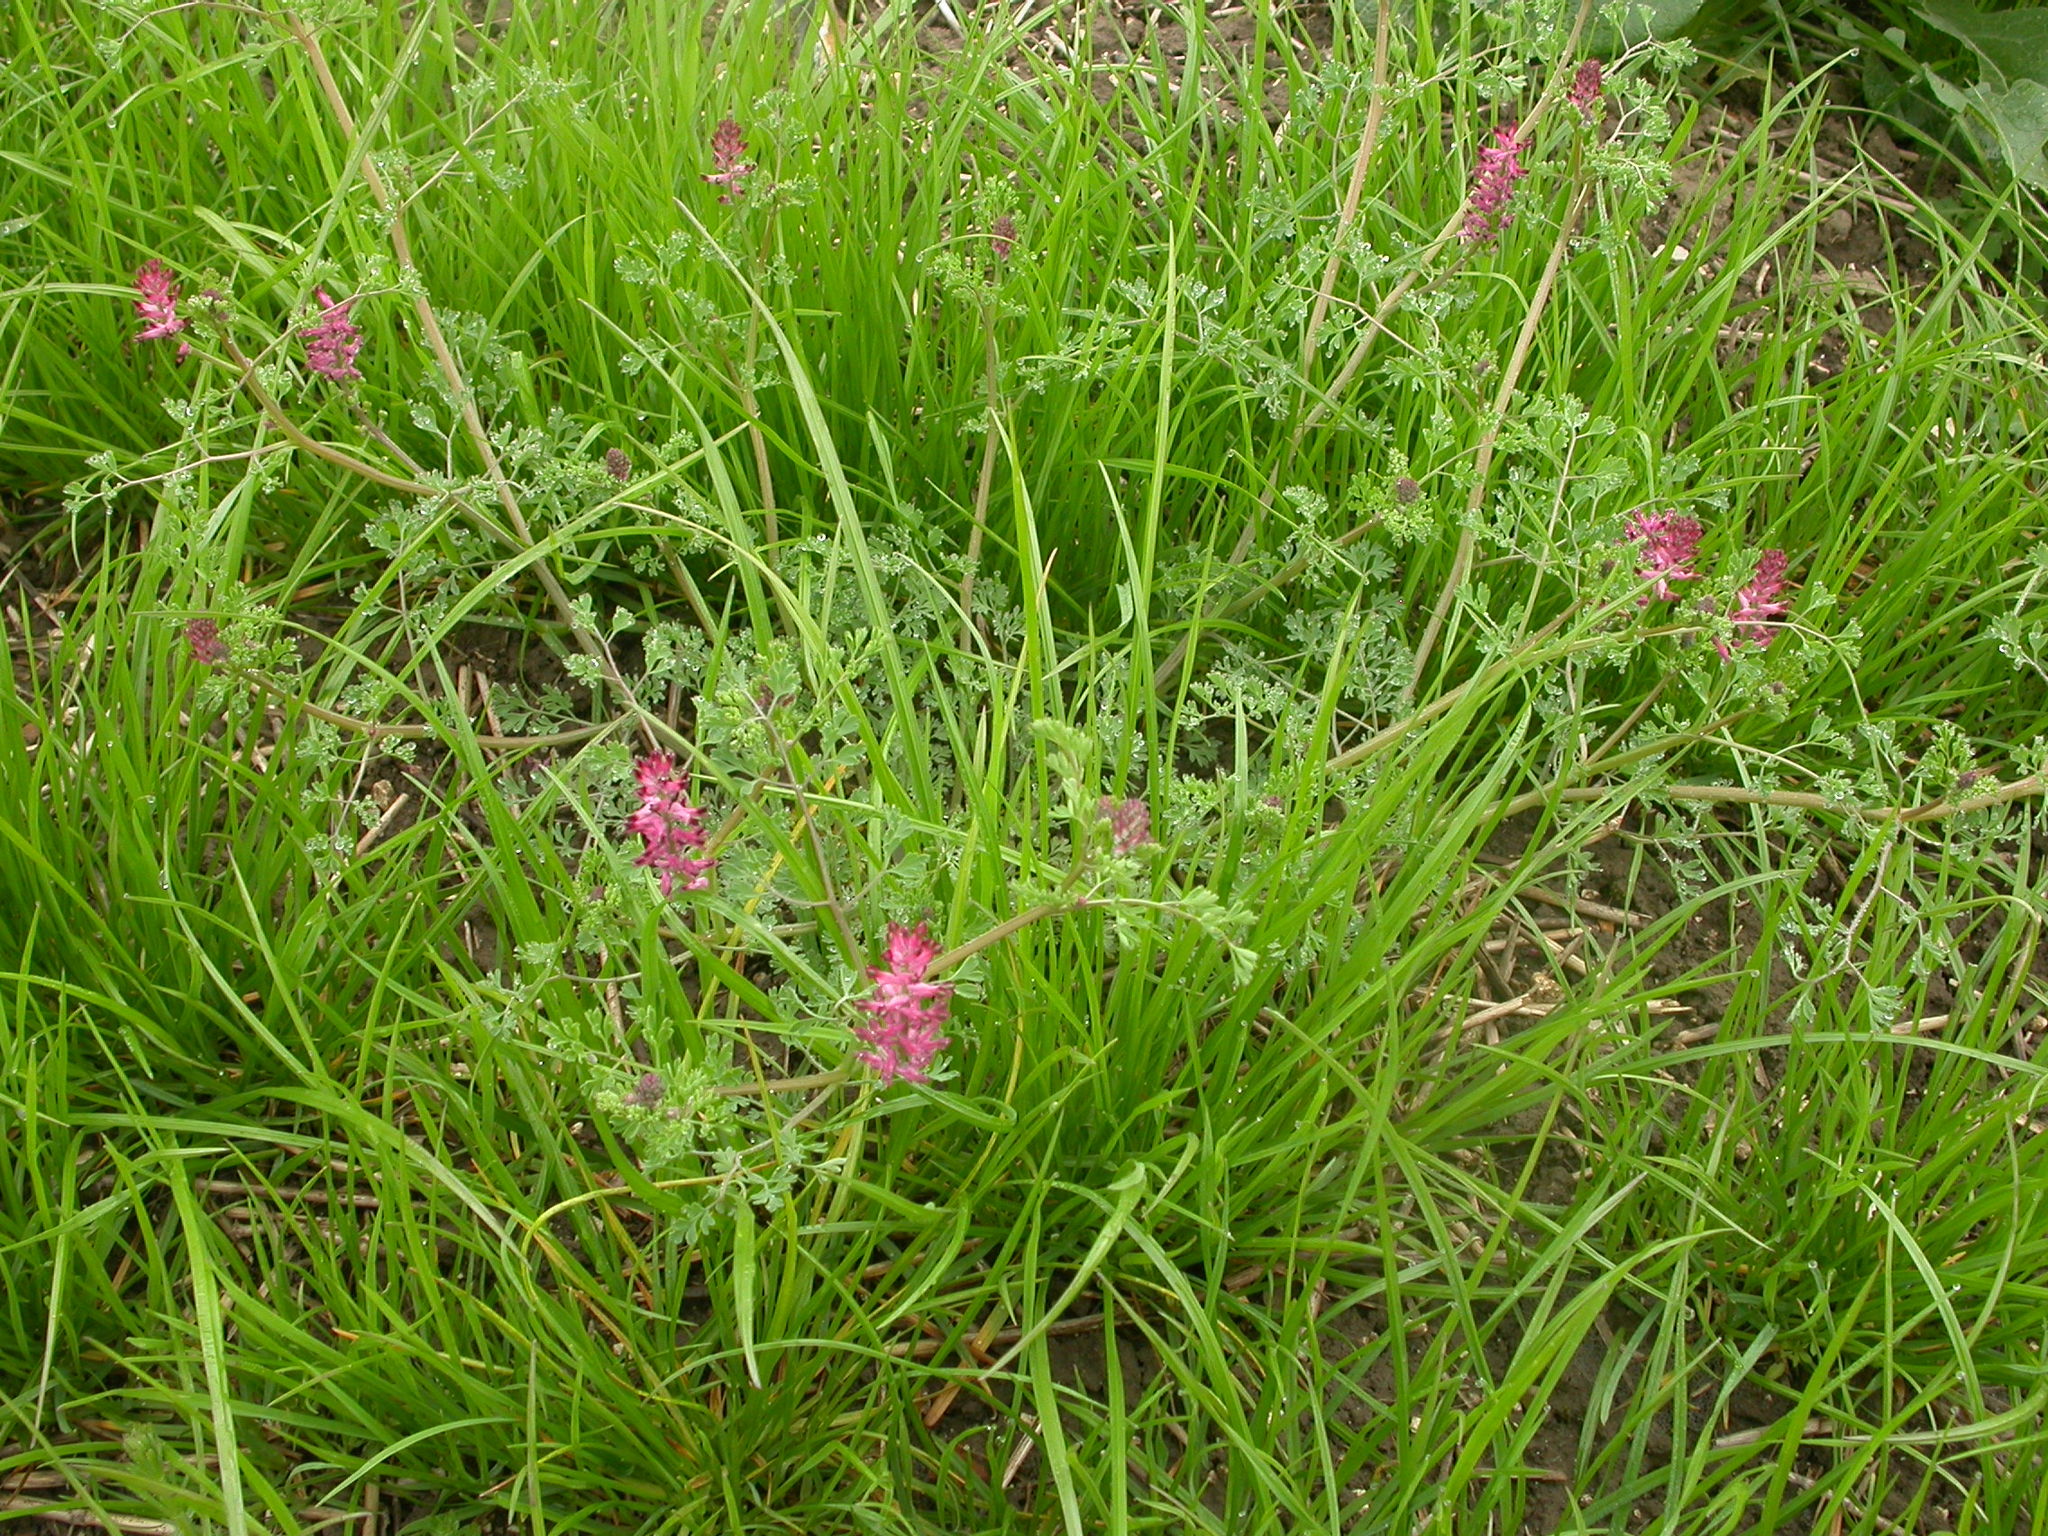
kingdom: Plantae
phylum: Tracheophyta
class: Magnoliopsida
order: Ranunculales
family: Papaveraceae
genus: Fumaria
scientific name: Fumaria officinalis
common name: Common fumitory
